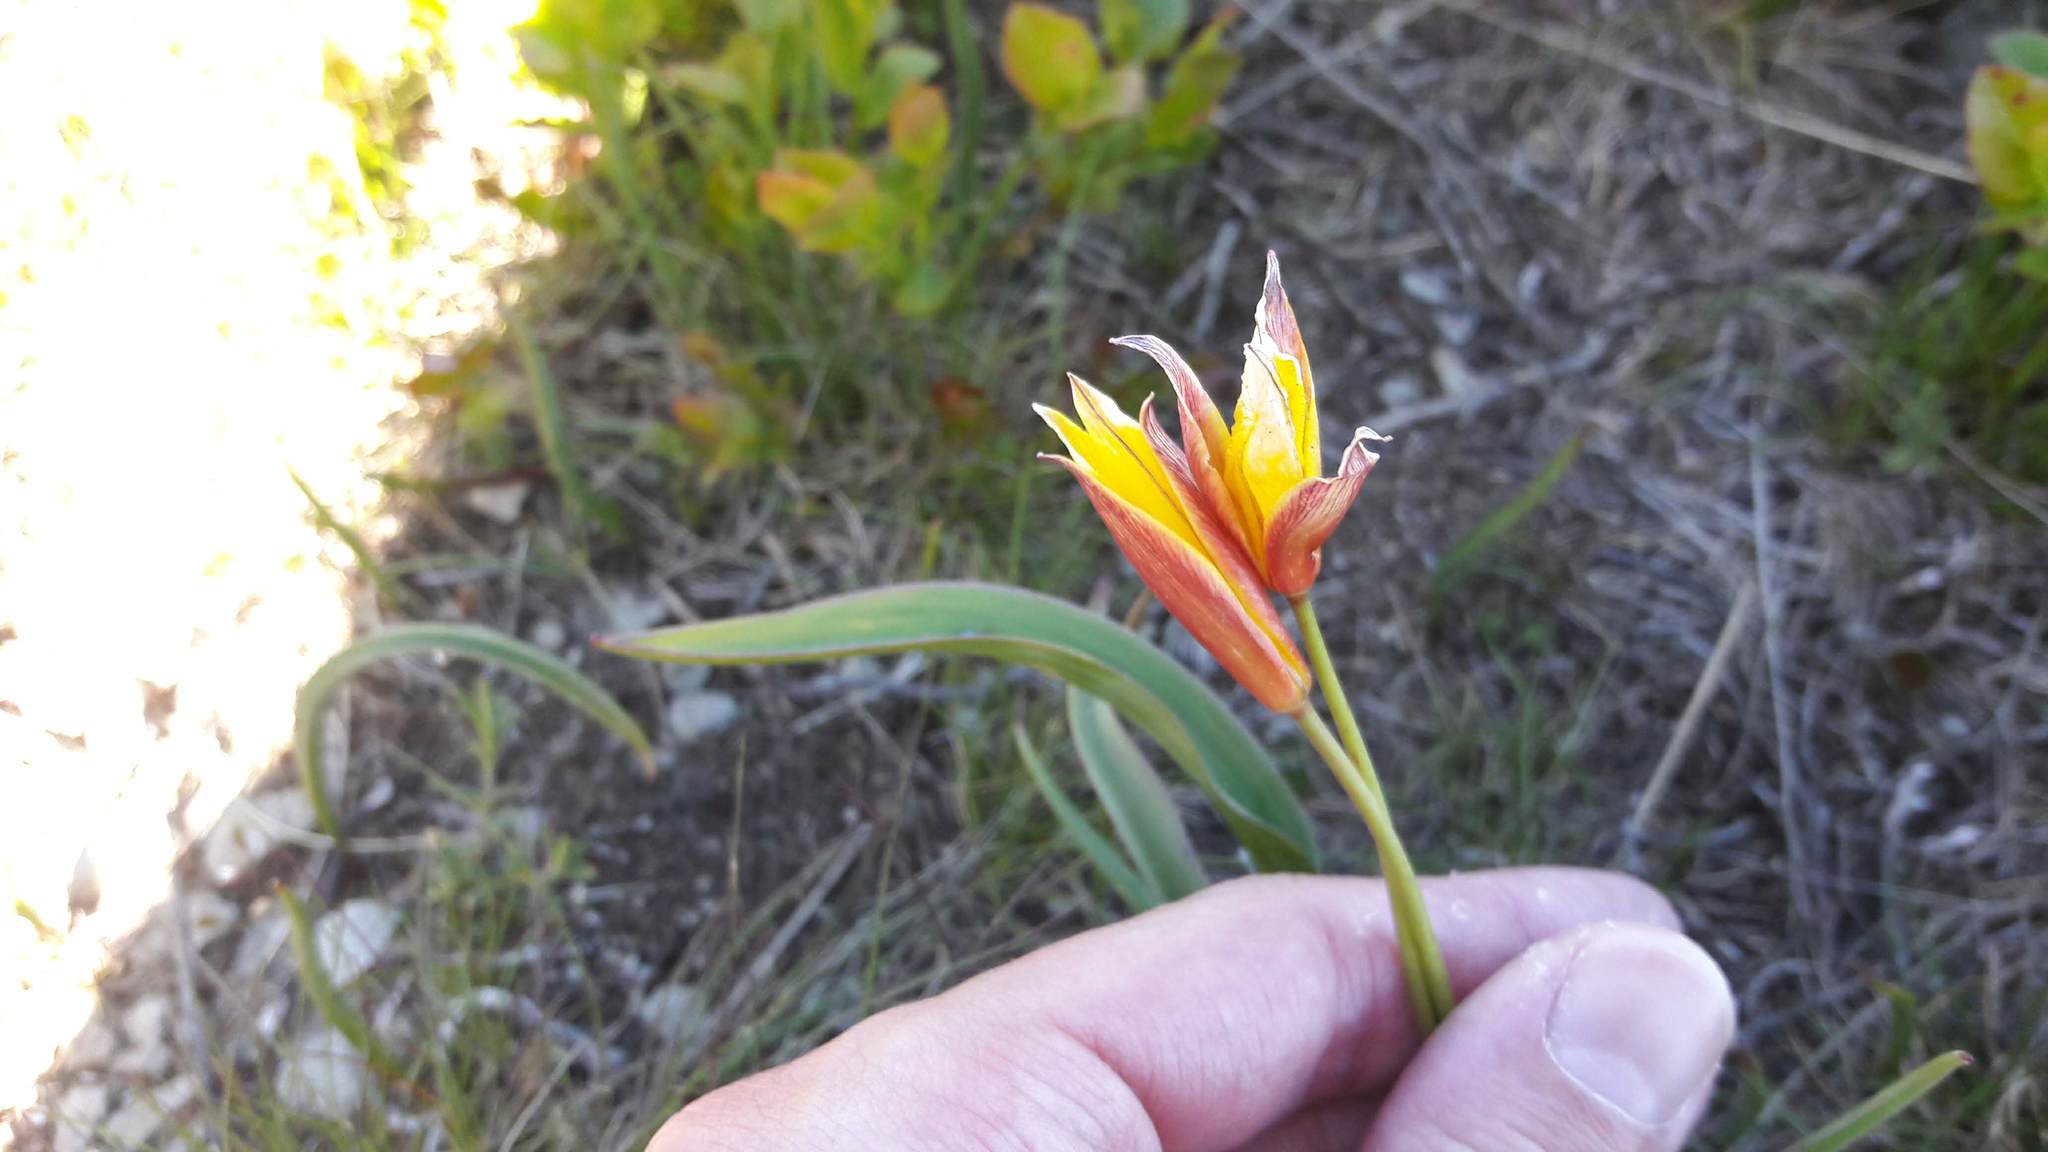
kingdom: Plantae
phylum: Tracheophyta
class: Liliopsida
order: Liliales
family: Liliaceae
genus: Tulipa
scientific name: Tulipa sylvestris
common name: Wild tulip
